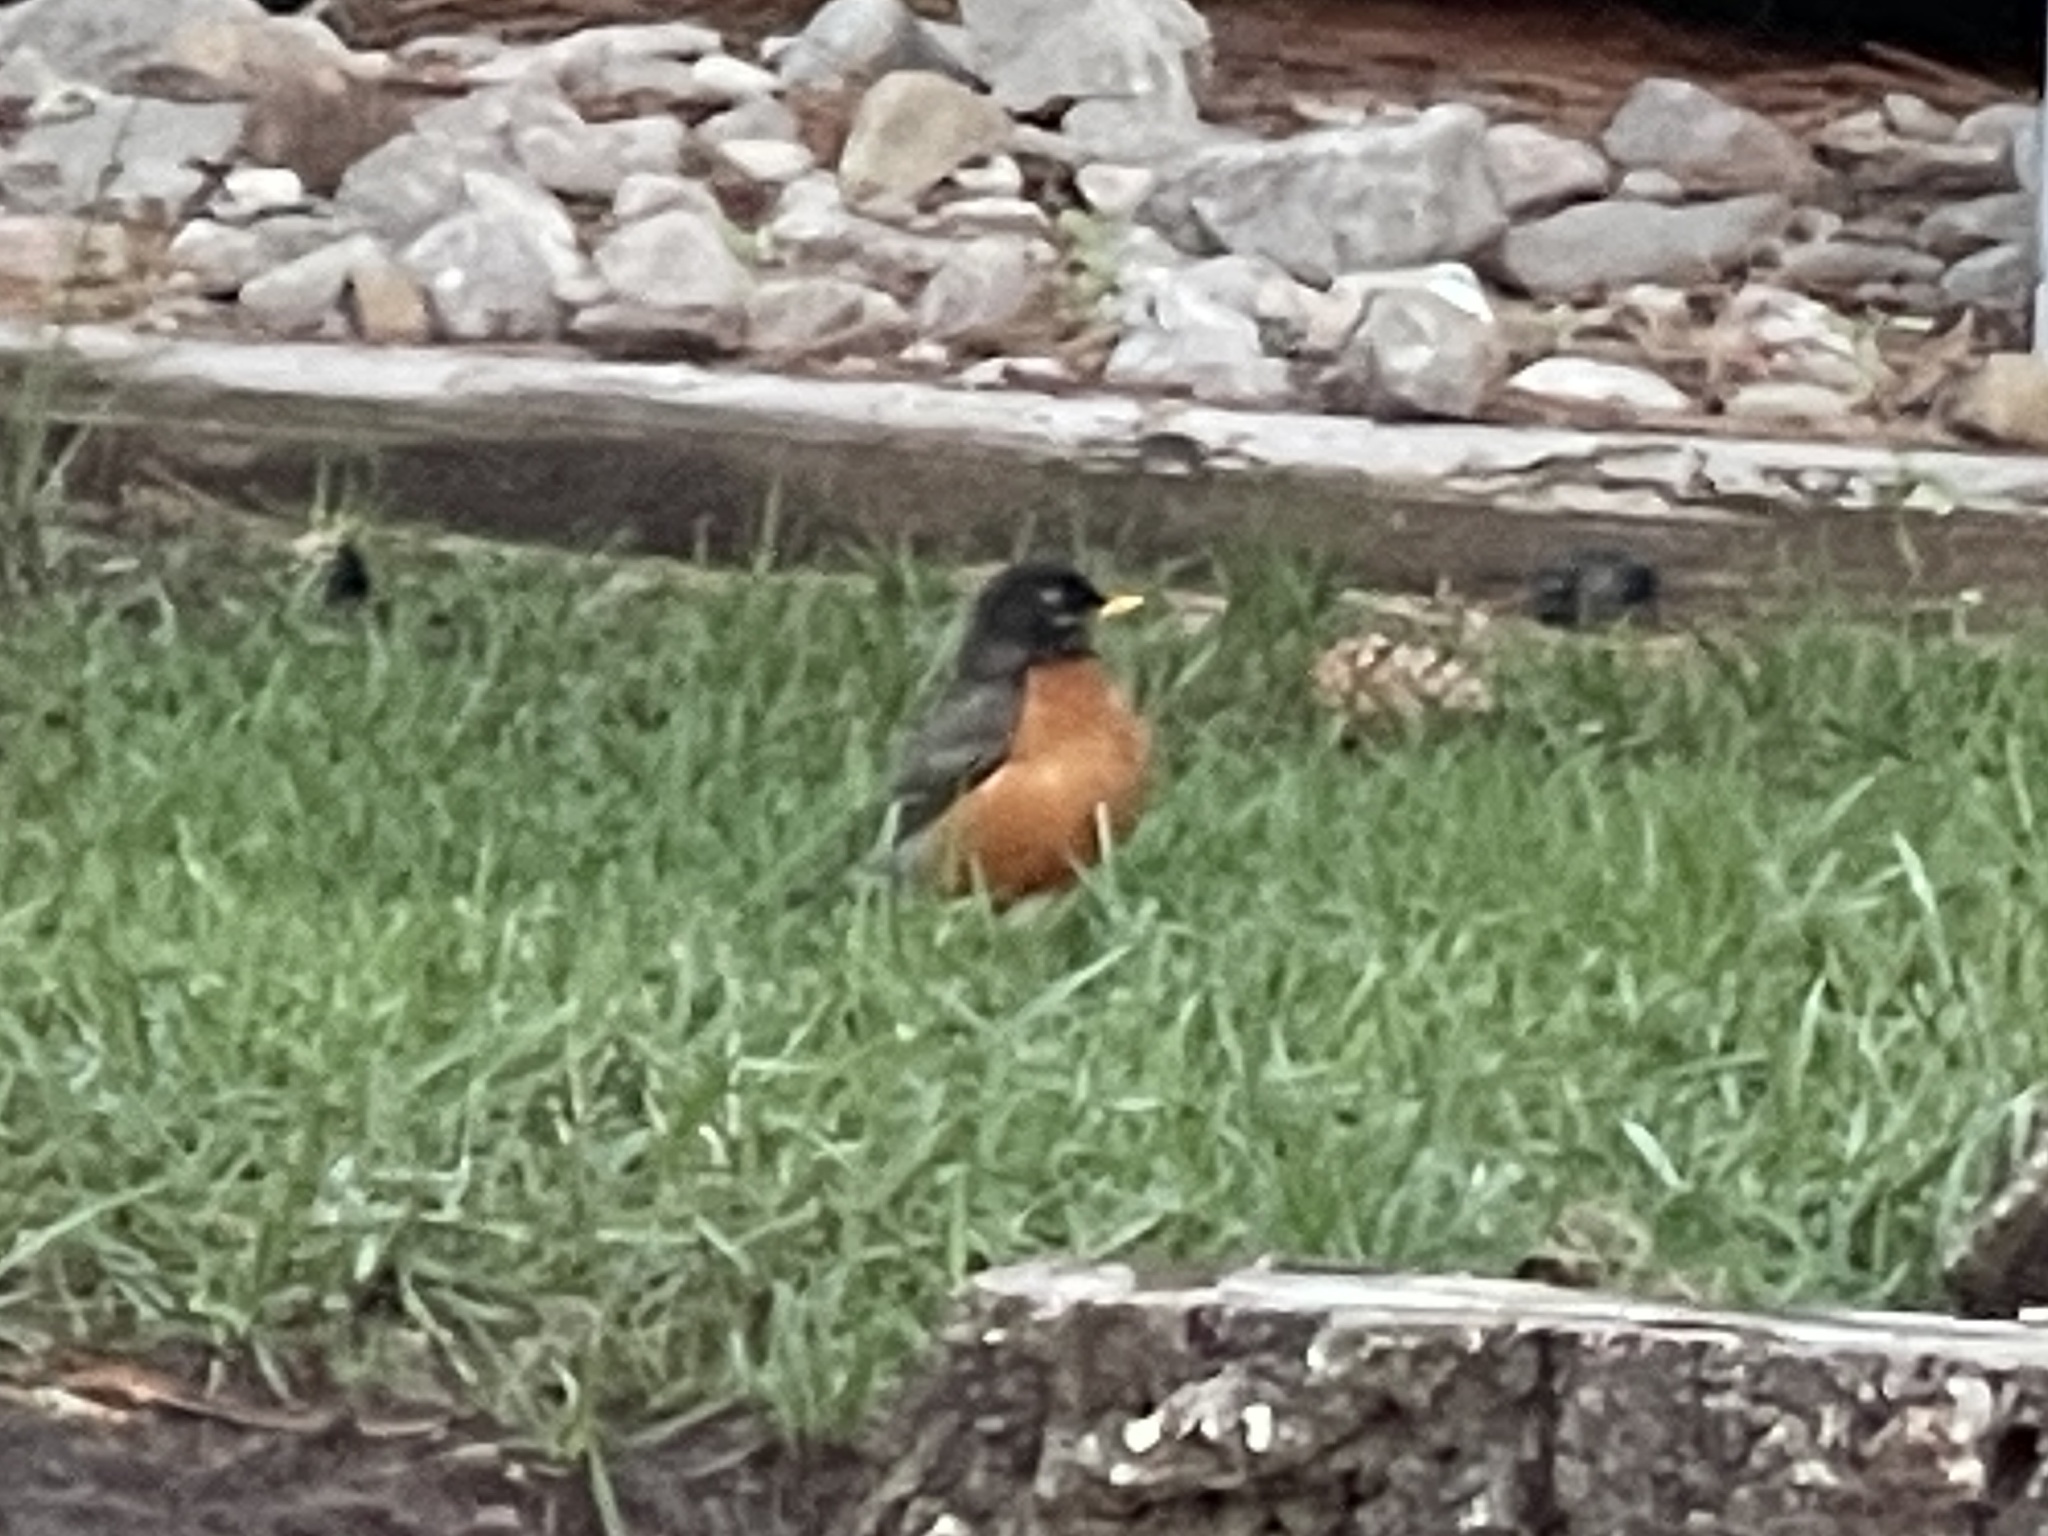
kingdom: Animalia
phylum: Chordata
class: Aves
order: Passeriformes
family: Turdidae
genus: Turdus
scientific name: Turdus migratorius
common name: American robin
